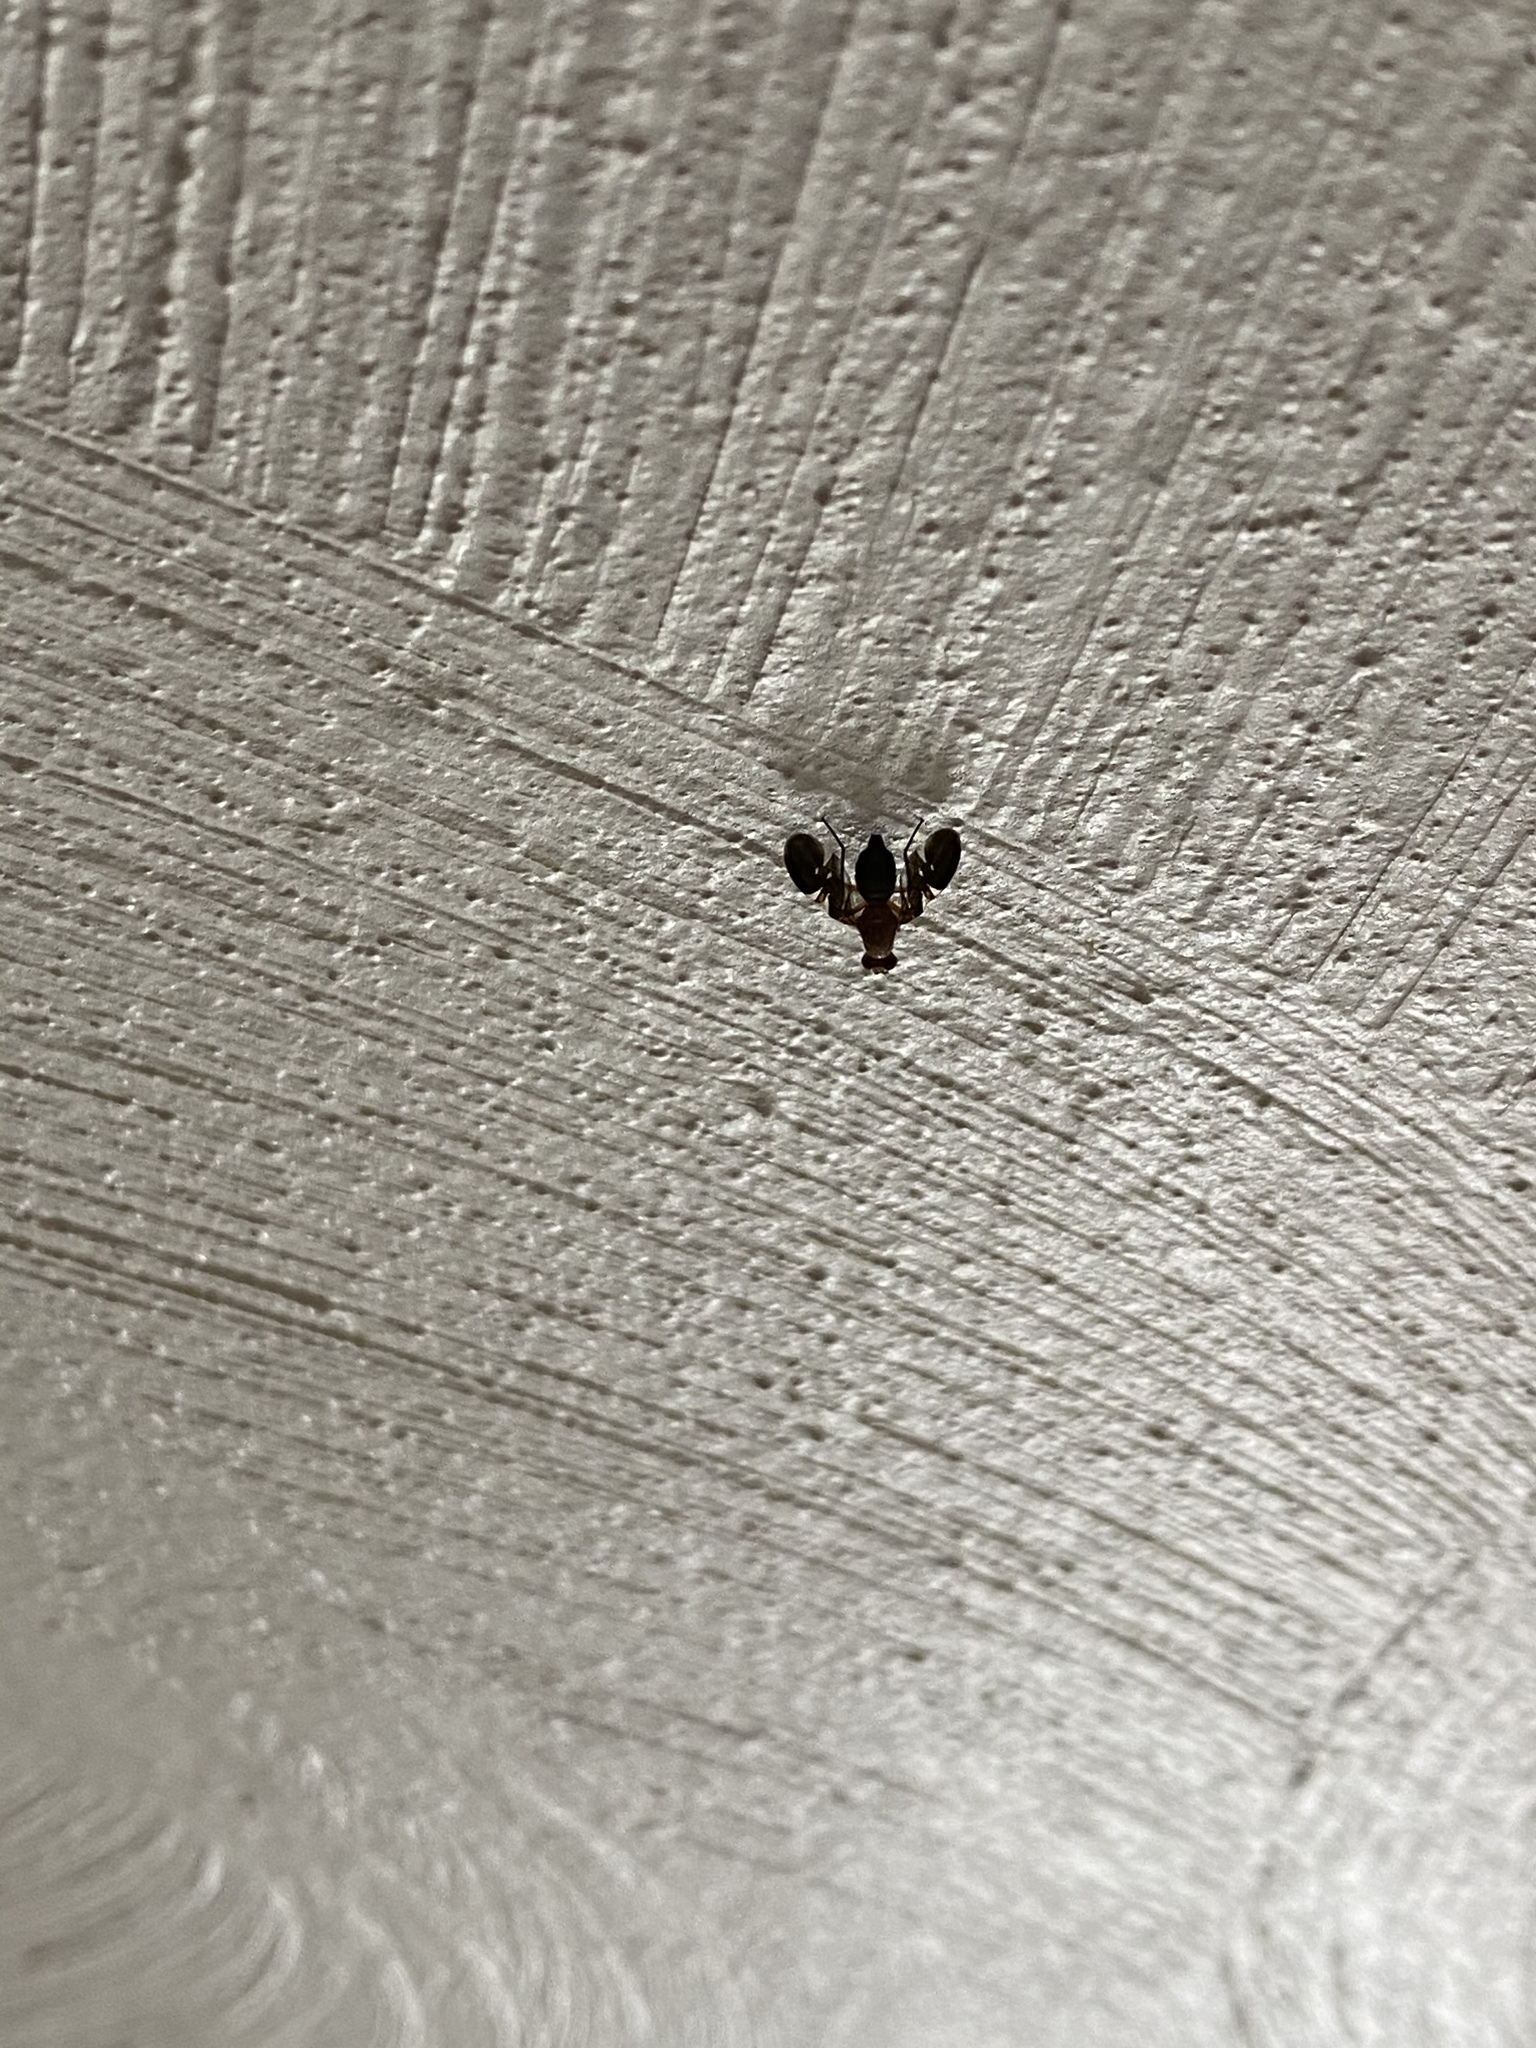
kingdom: Animalia
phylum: Arthropoda
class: Insecta
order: Diptera
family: Ulidiidae
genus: Delphinia
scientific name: Delphinia picta
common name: Common picture-winged fly
